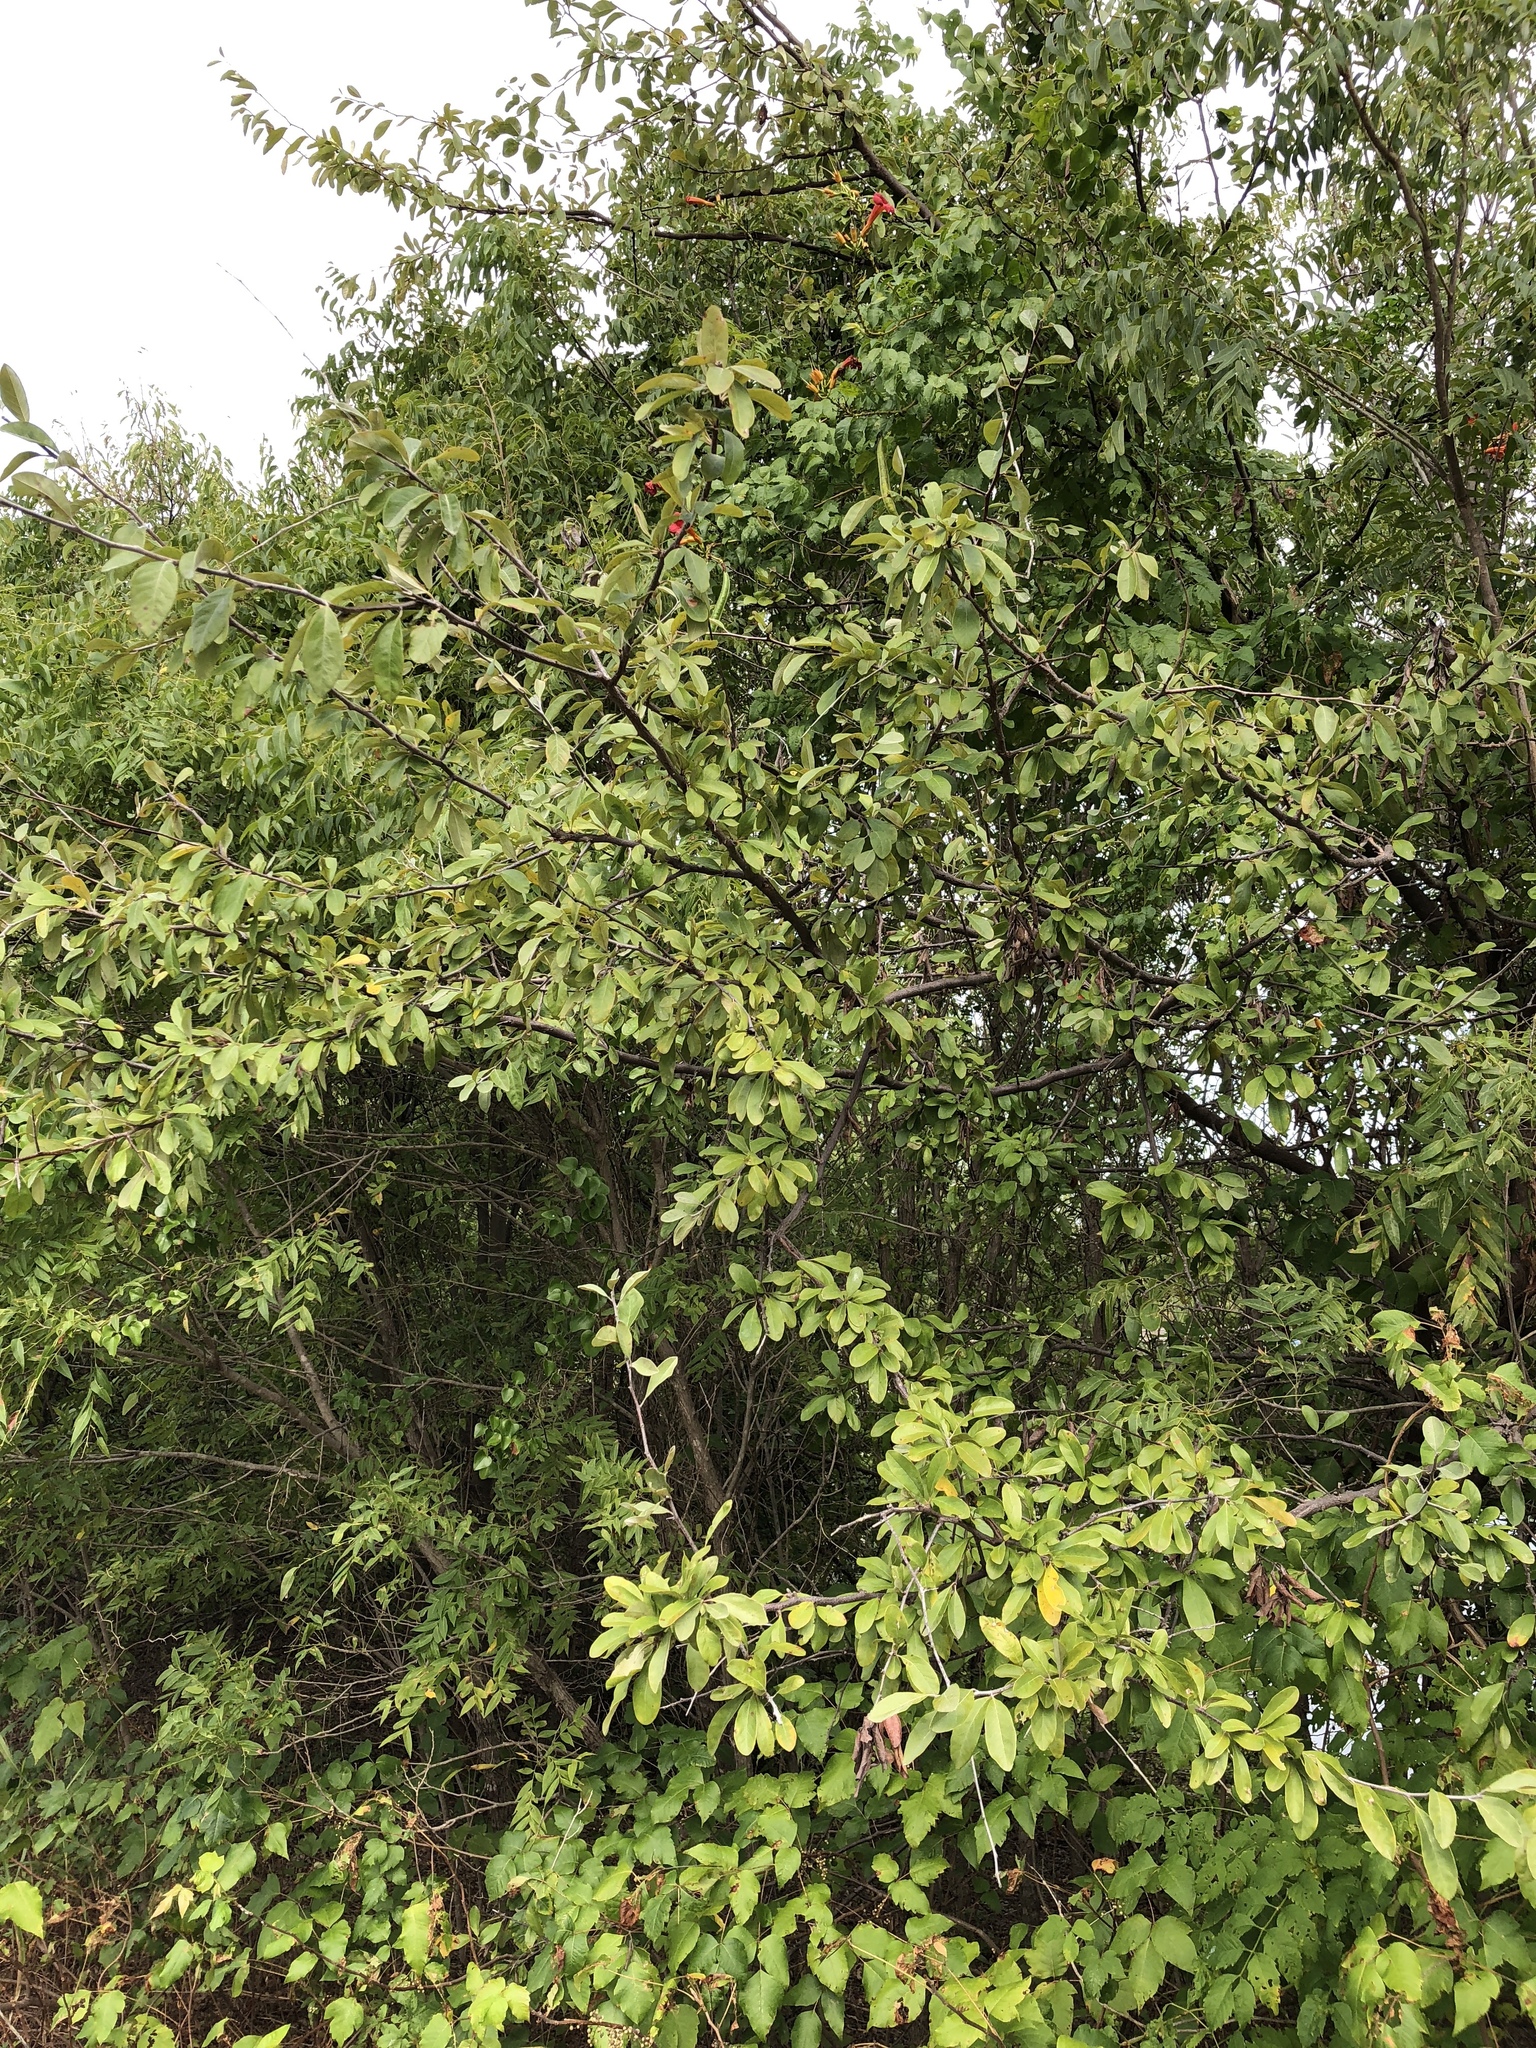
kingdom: Plantae
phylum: Tracheophyta
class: Magnoliopsida
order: Ericales
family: Sapotaceae
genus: Sideroxylon
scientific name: Sideroxylon lanuginosum
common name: Chittamwood
